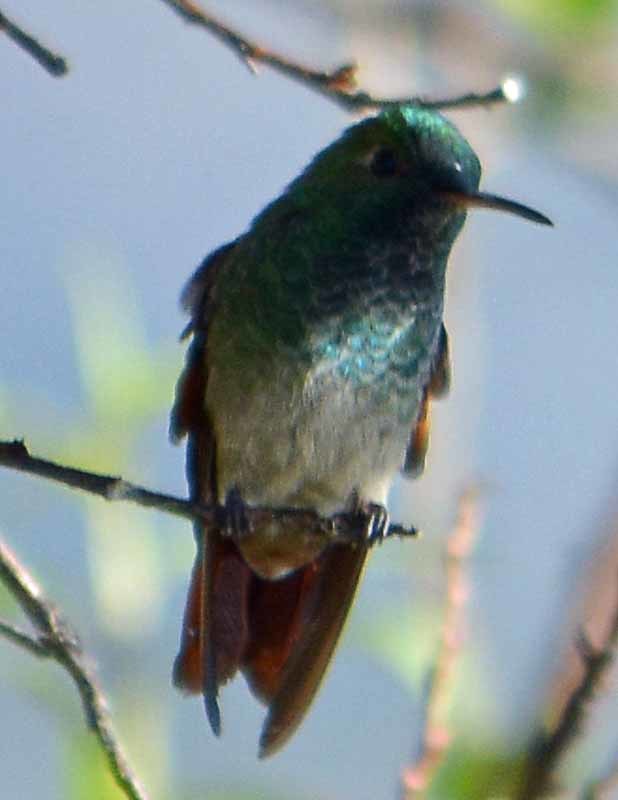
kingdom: Animalia
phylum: Chordata
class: Aves
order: Apodiformes
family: Trochilidae
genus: Saucerottia
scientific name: Saucerottia beryllina
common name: Berylline hummingbird
